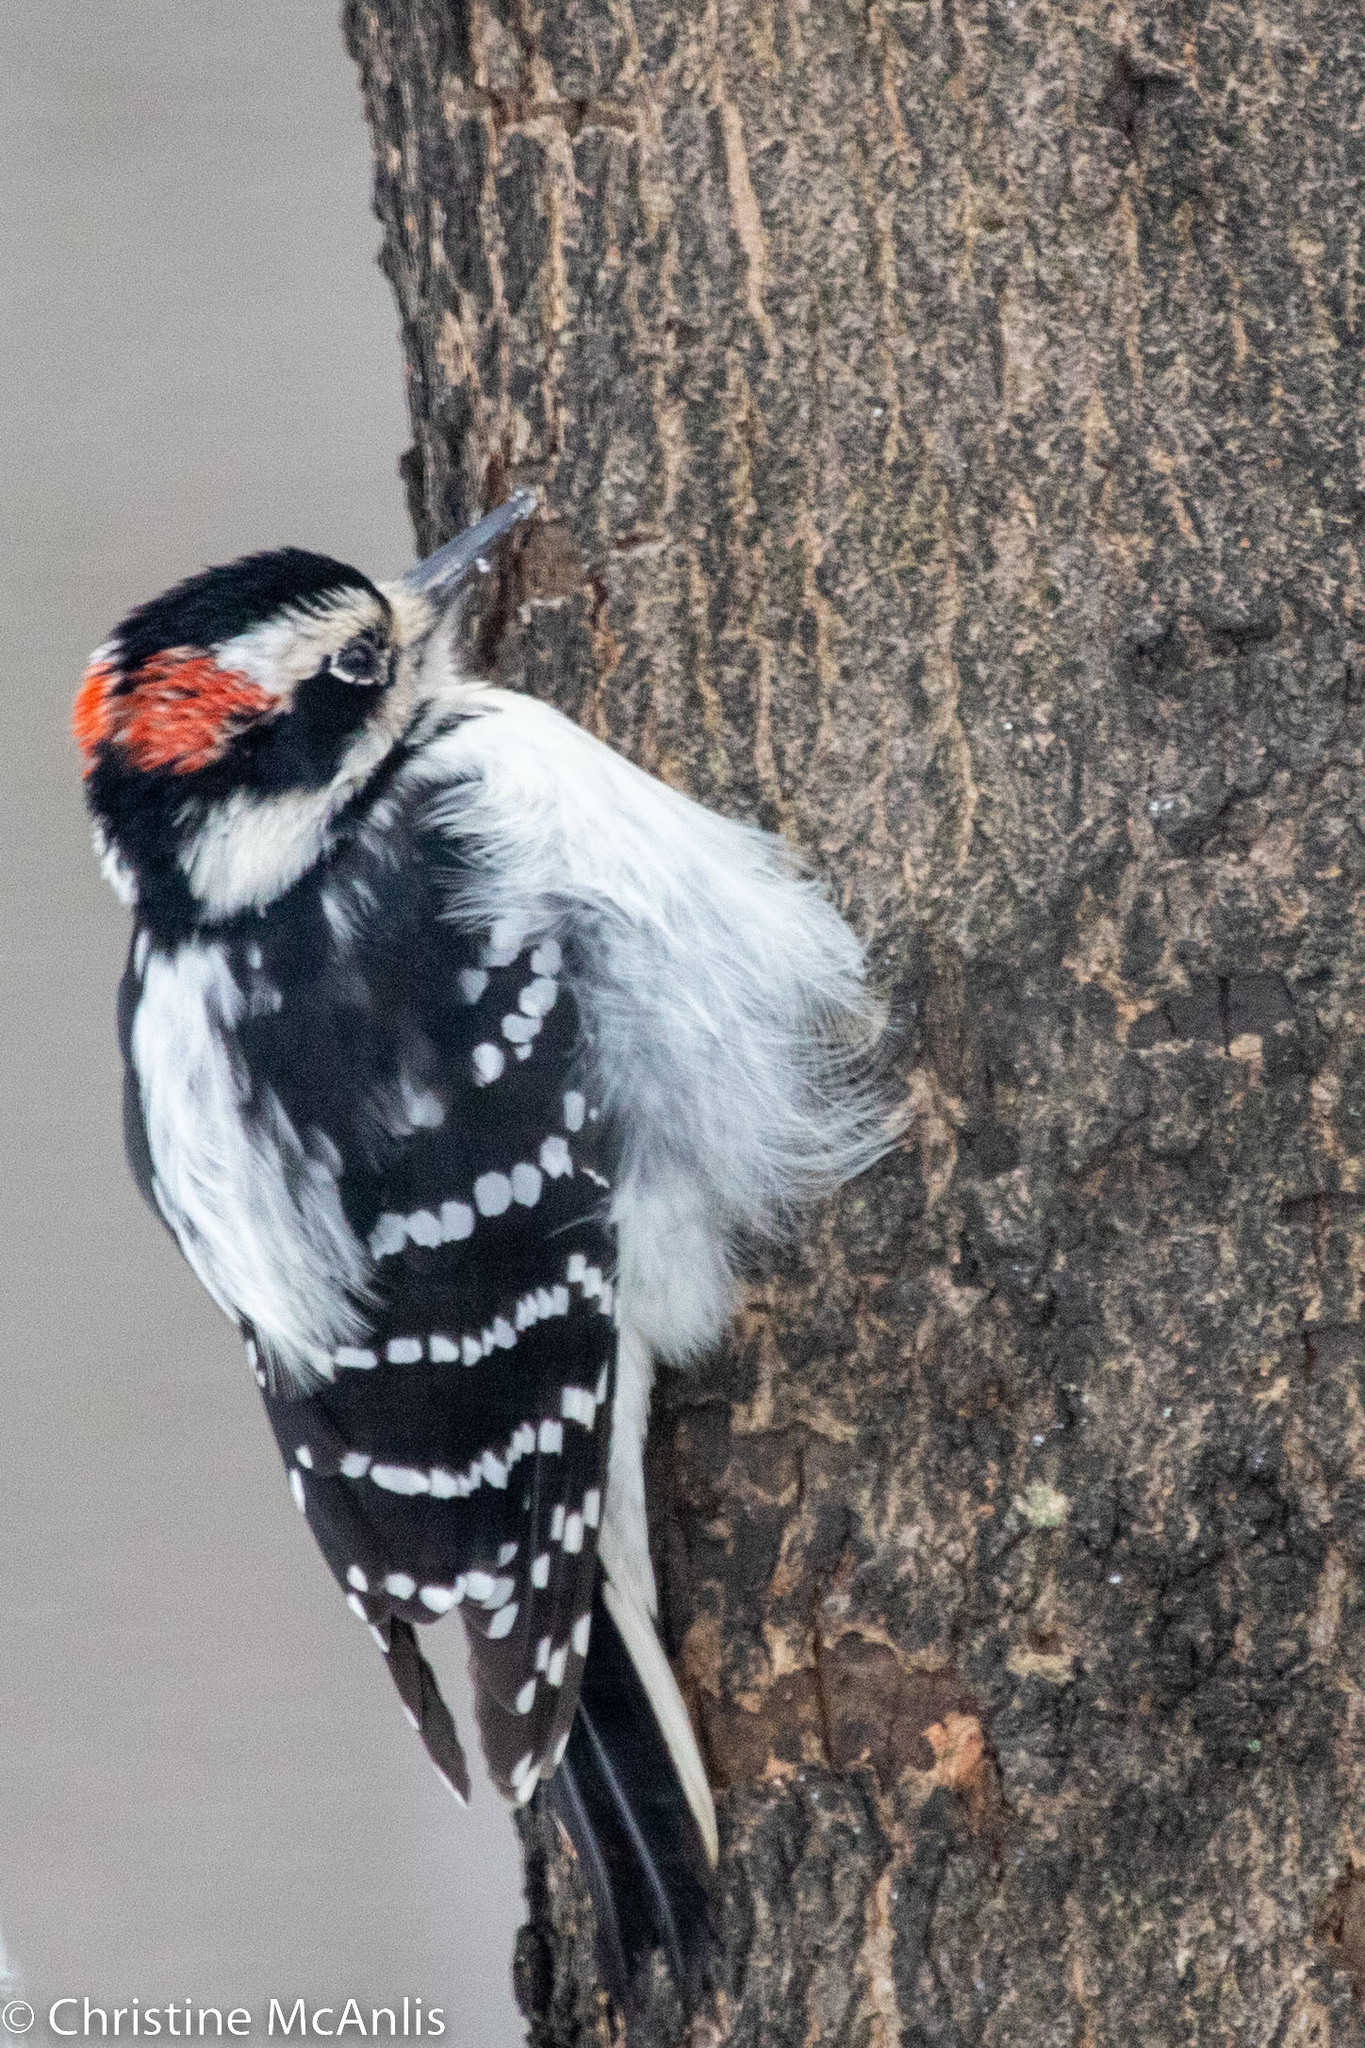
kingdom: Animalia
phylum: Chordata
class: Aves
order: Piciformes
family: Picidae
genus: Leuconotopicus
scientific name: Leuconotopicus villosus
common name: Hairy woodpecker
